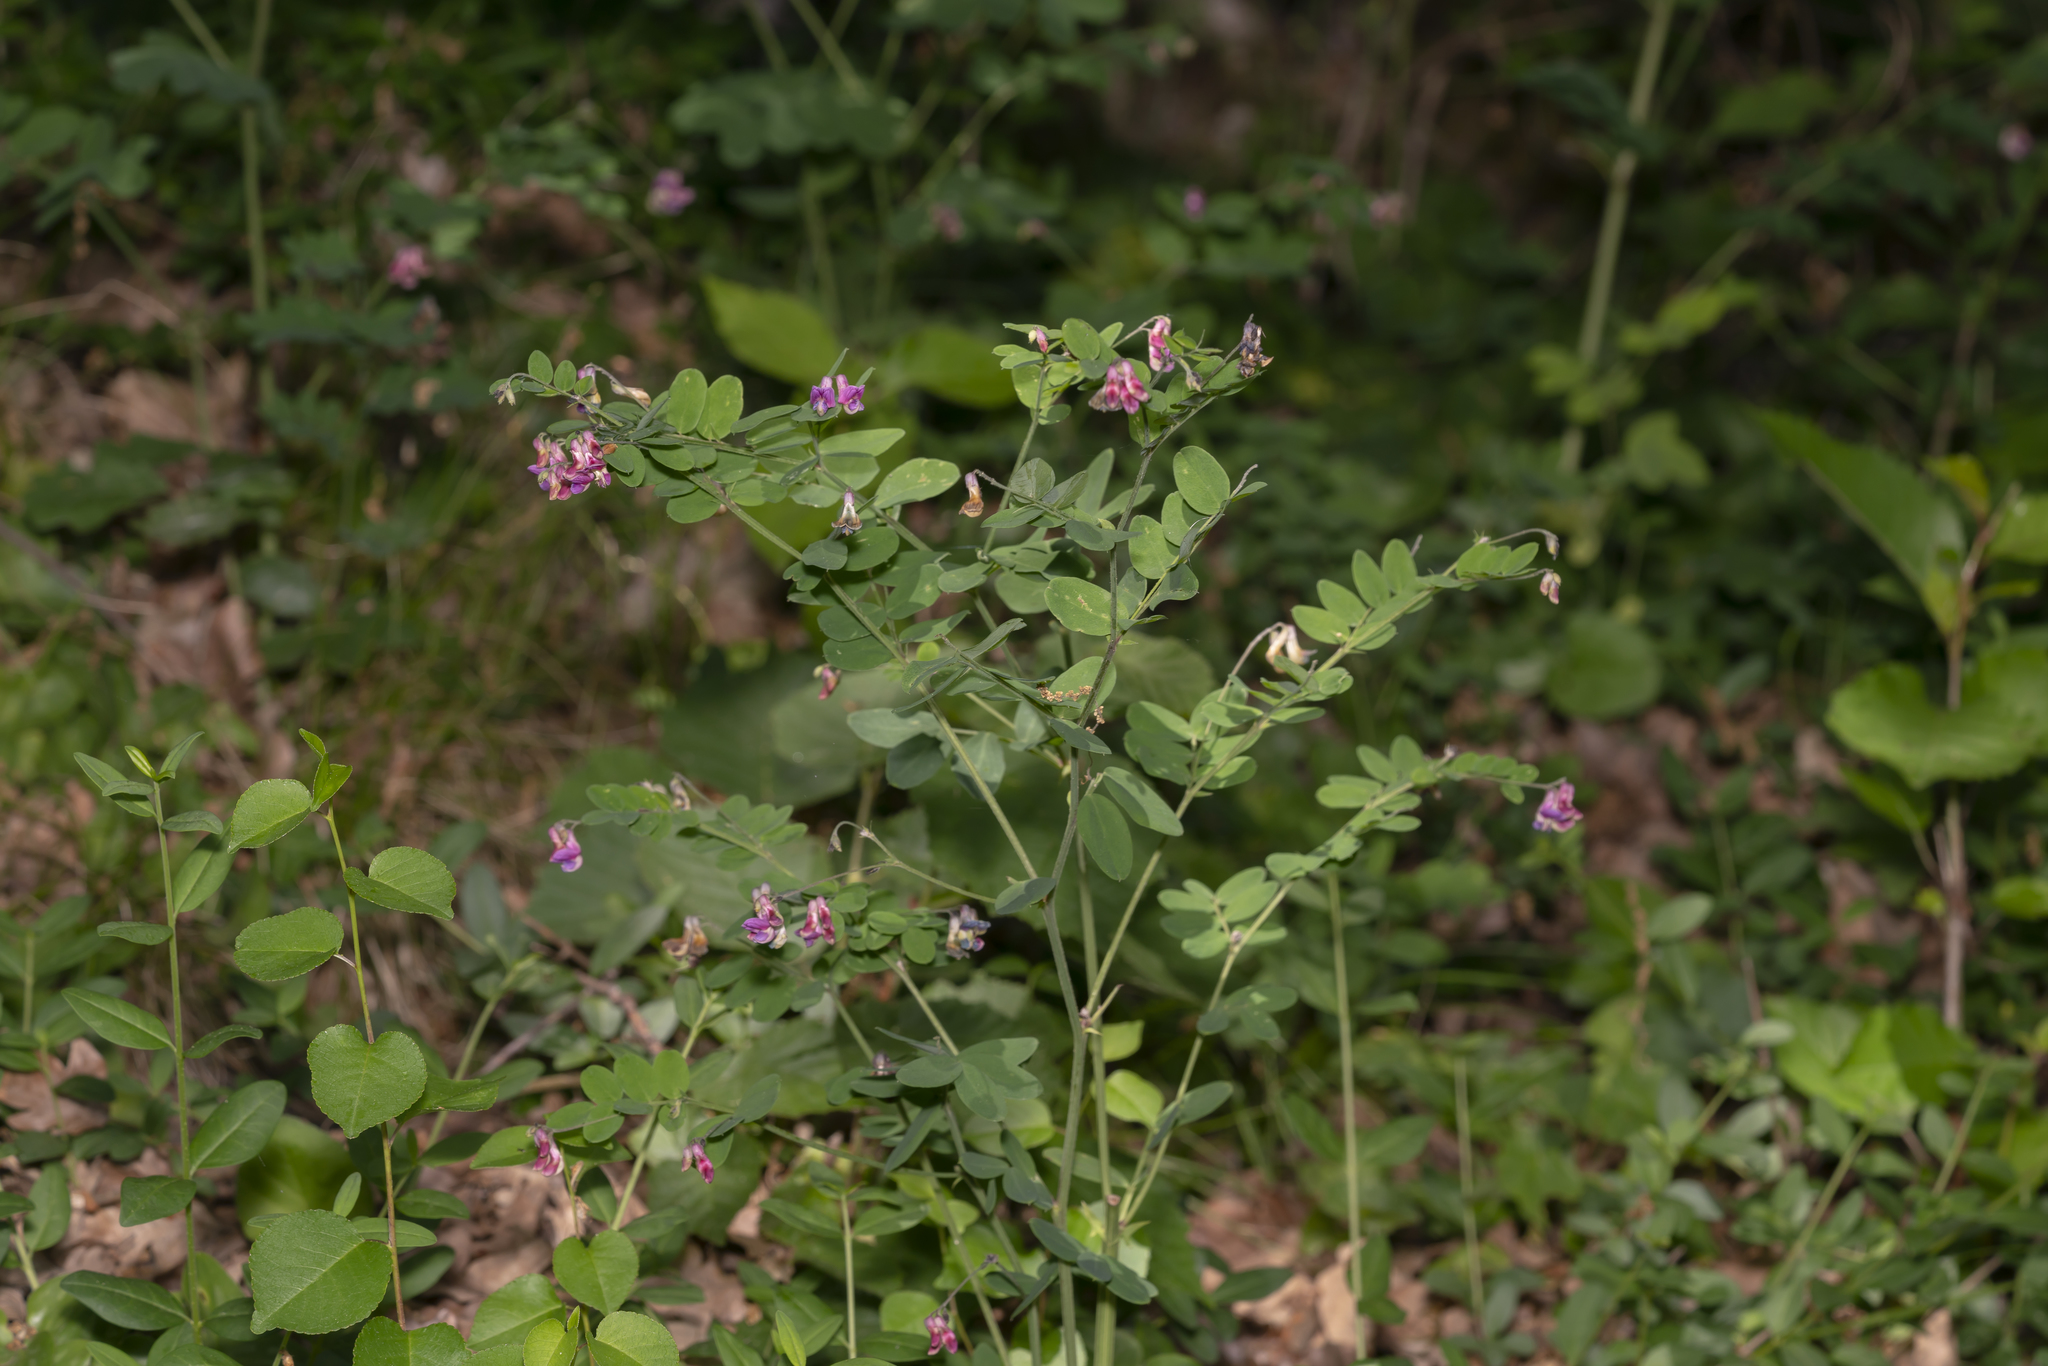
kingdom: Plantae
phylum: Tracheophyta
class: Magnoliopsida
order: Fabales
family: Fabaceae
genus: Lathyrus
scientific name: Lathyrus niger
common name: Black pea
